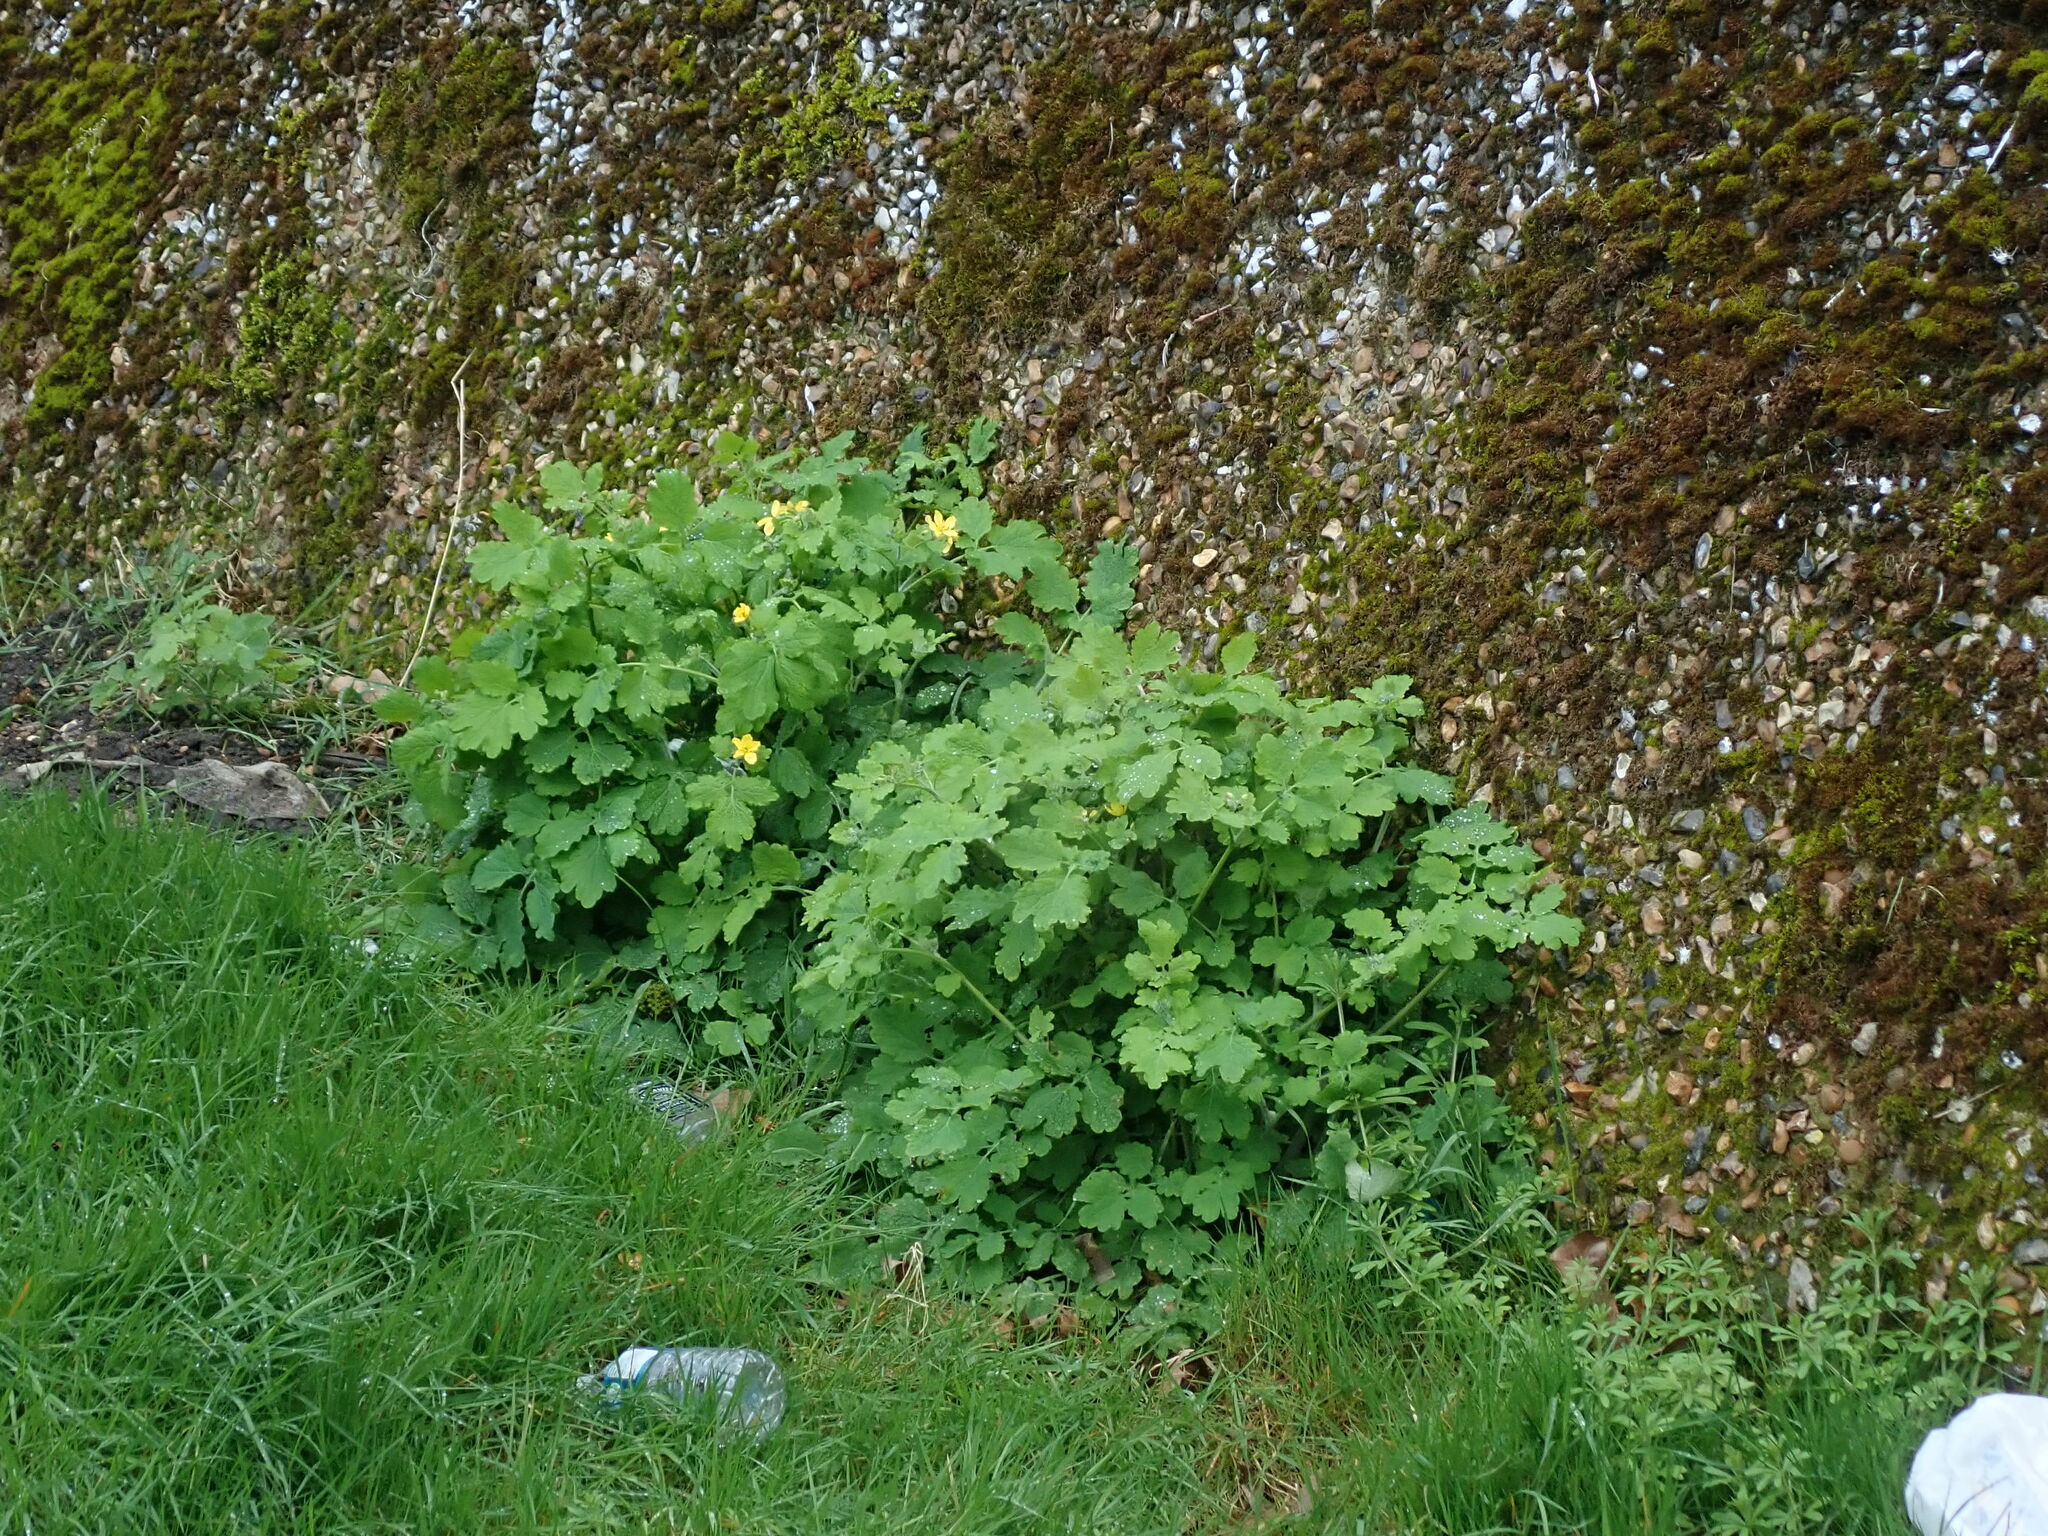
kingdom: Plantae
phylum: Tracheophyta
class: Magnoliopsida
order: Ranunculales
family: Papaveraceae
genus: Chelidonium
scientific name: Chelidonium majus
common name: Greater celandine
